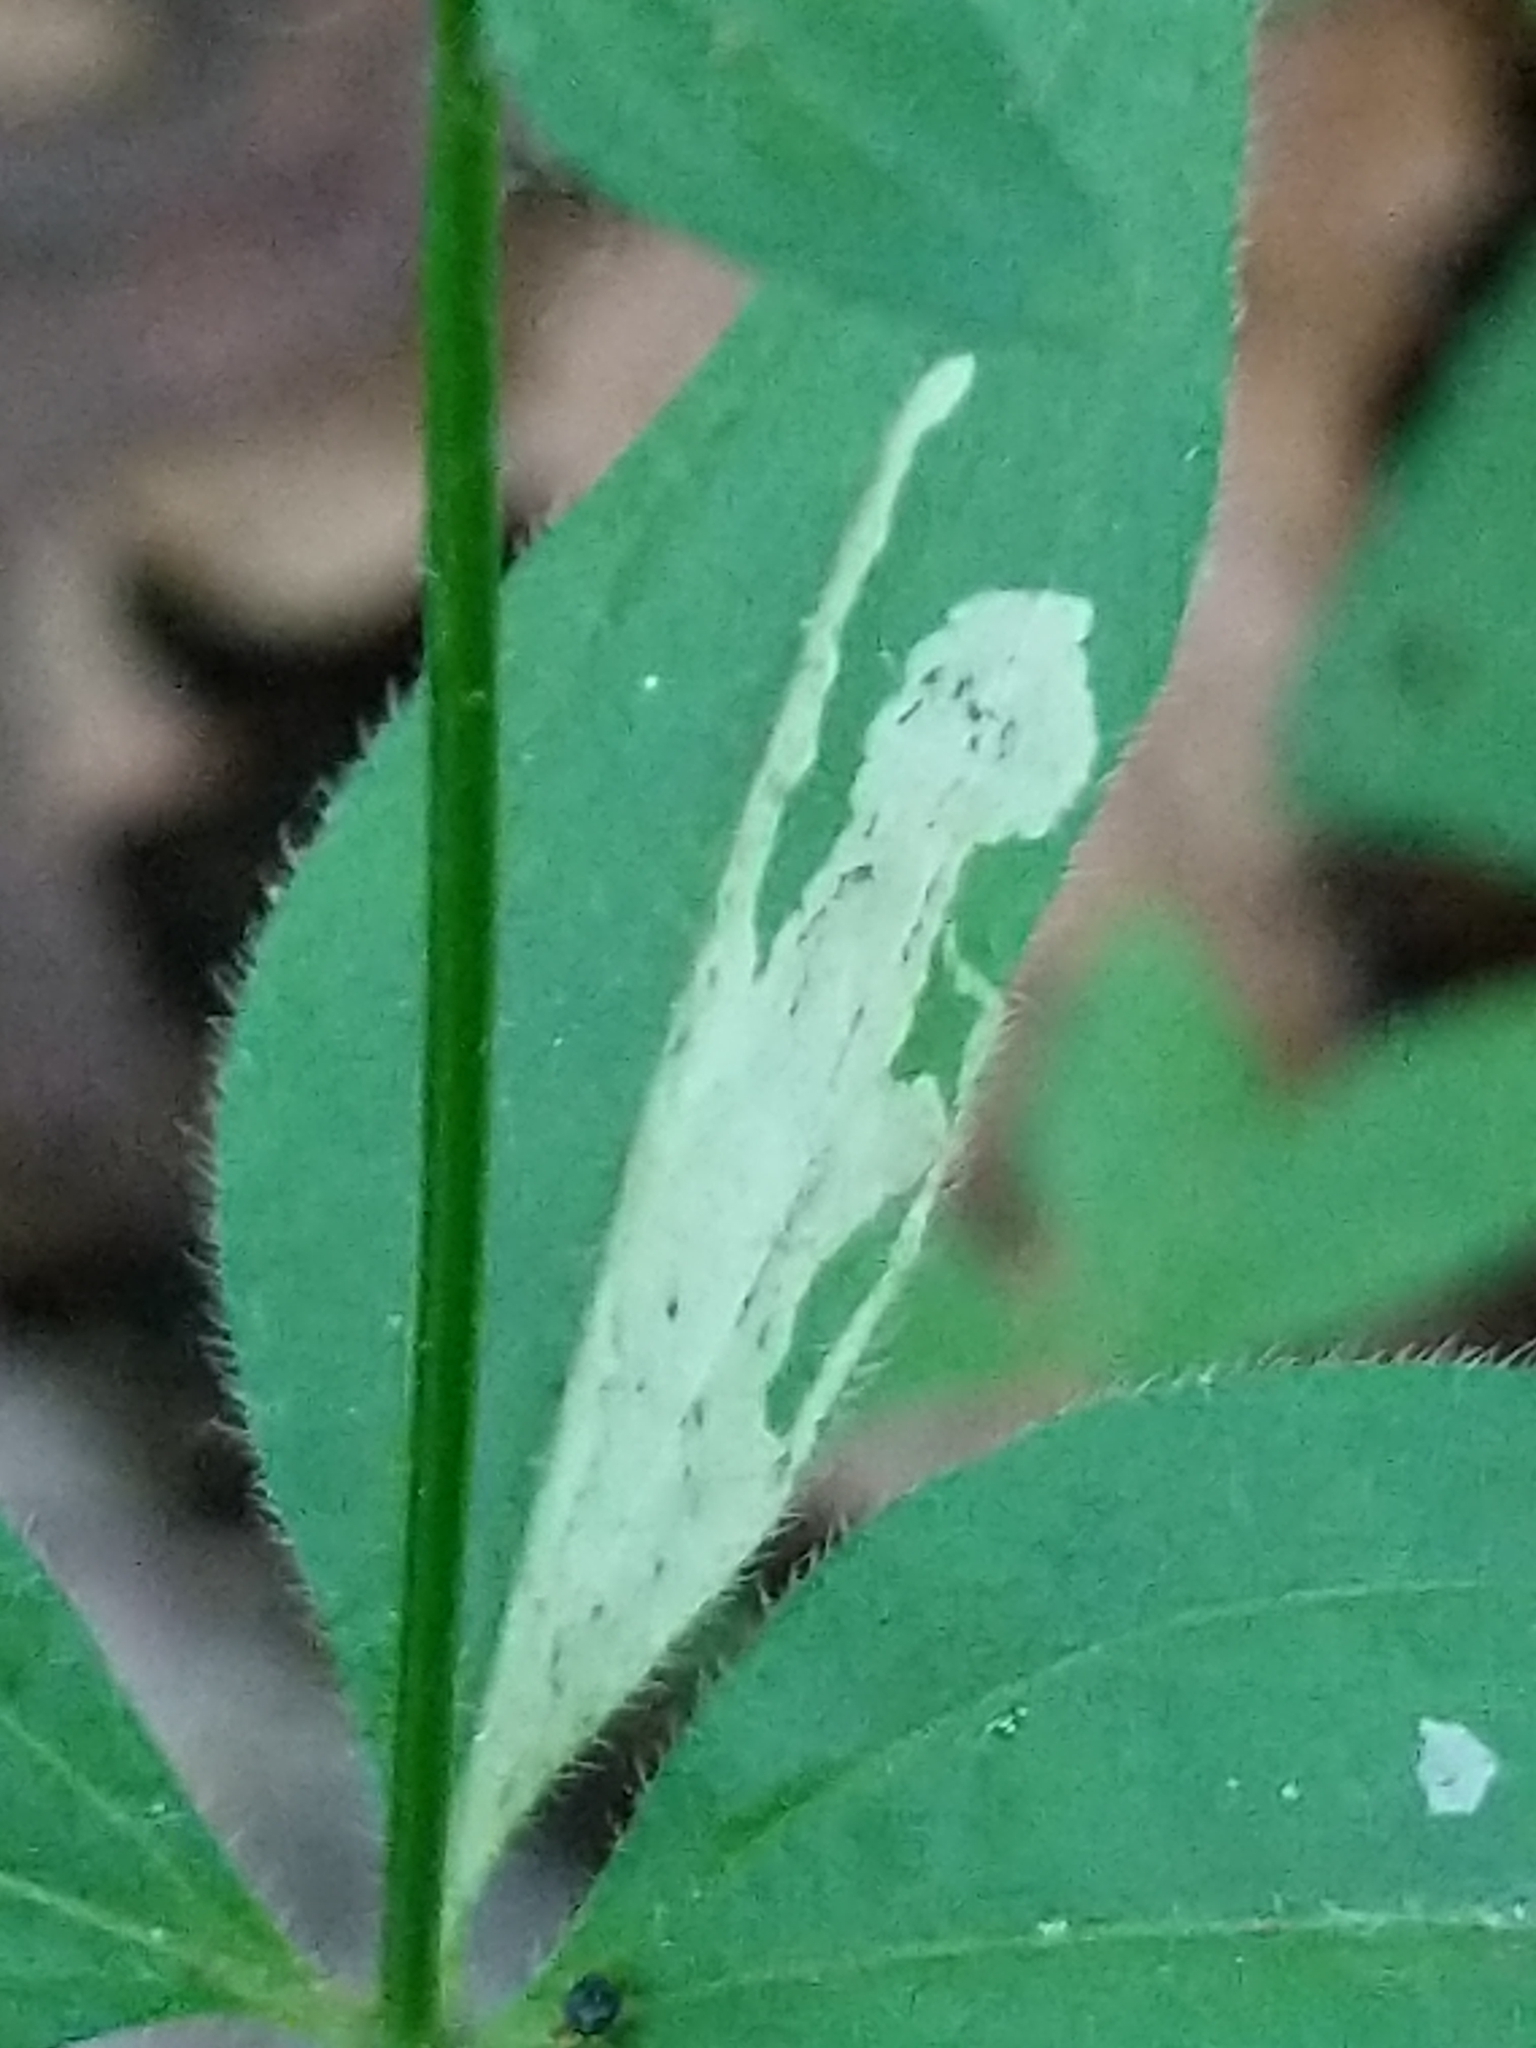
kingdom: Animalia
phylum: Arthropoda
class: Insecta
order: Diptera
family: Agromyzidae
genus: Liriomyza
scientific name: Liriomyza galiivora
